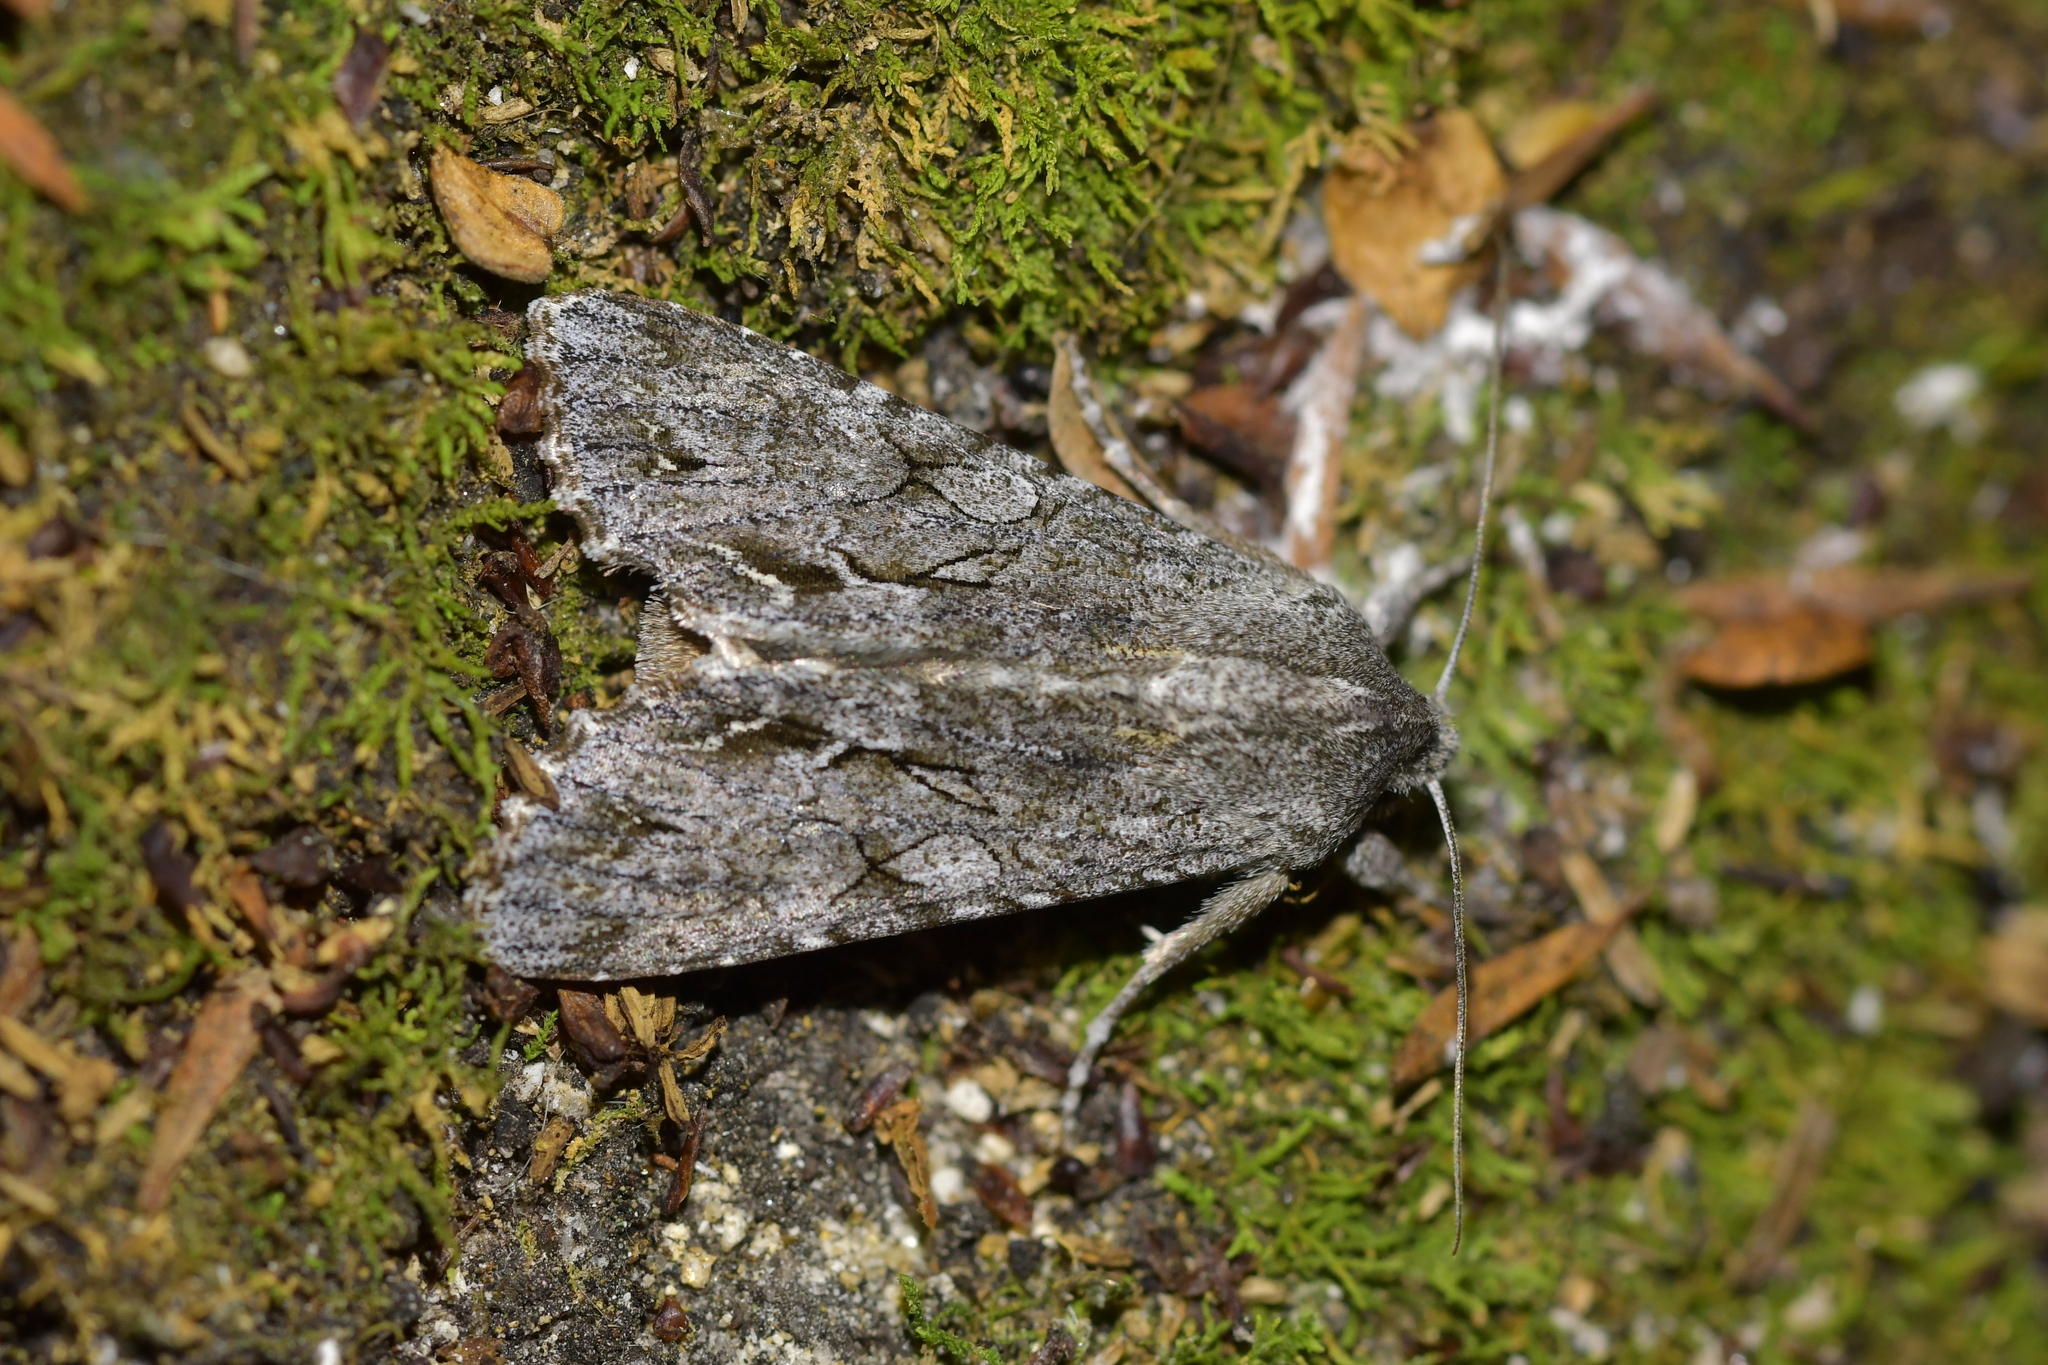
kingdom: Animalia
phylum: Arthropoda
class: Insecta
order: Lepidoptera
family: Noctuidae
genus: Ichneutica
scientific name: Ichneutica
